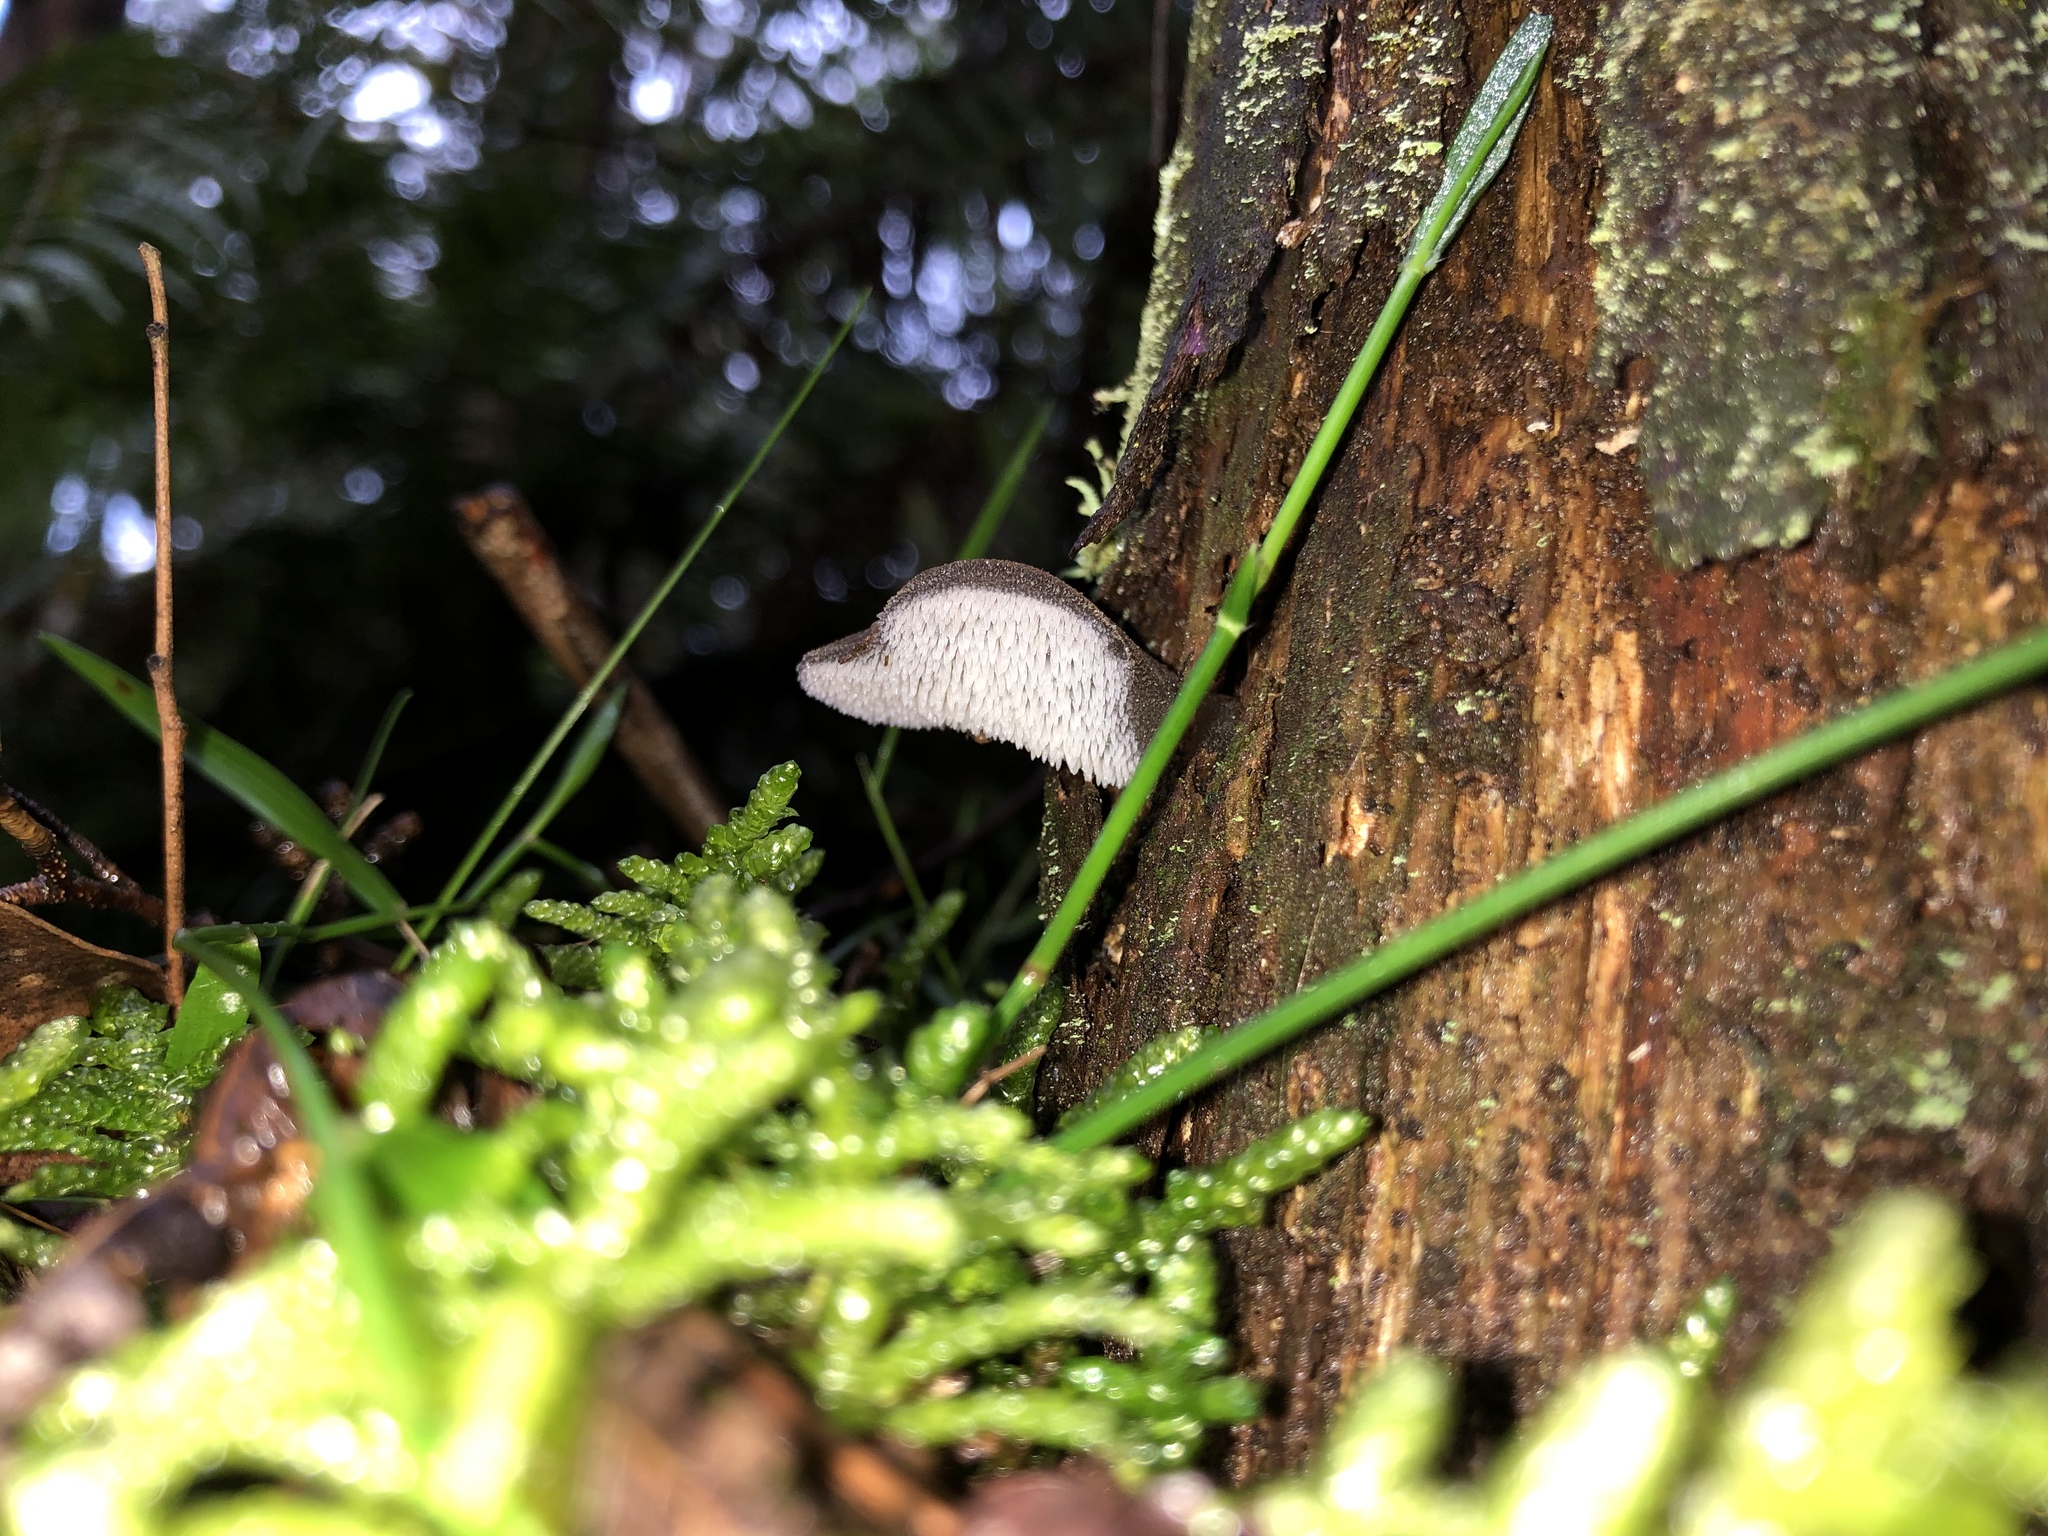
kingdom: Fungi
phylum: Basidiomycota
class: Agaricomycetes
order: Auriculariales
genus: Pseudohydnum
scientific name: Pseudohydnum gelatinosum
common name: Jelly tongue
